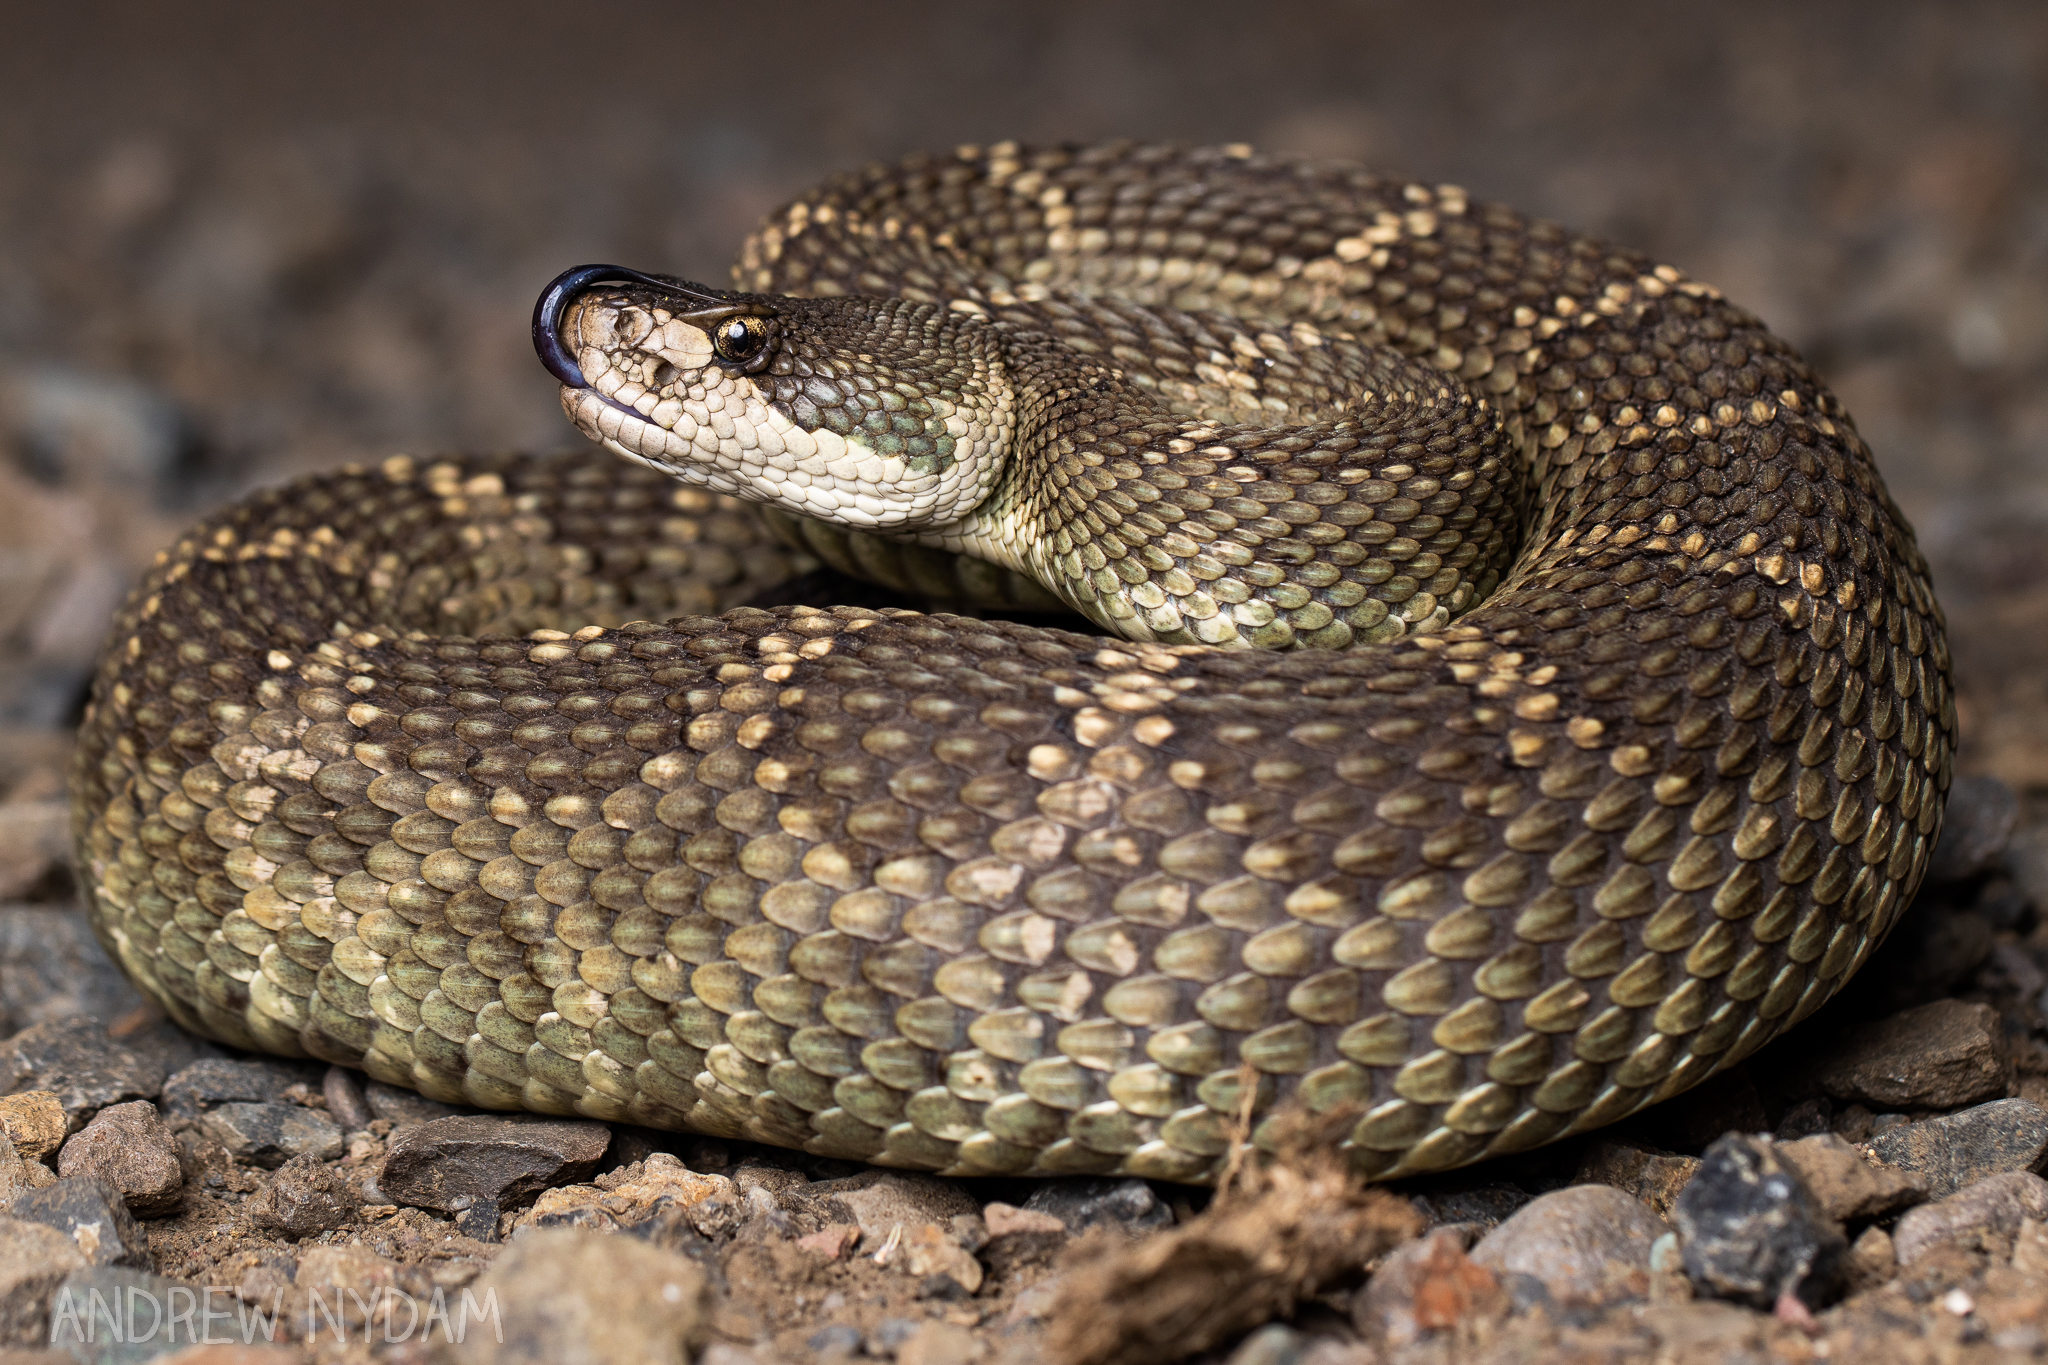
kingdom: Animalia
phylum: Chordata
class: Squamata
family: Viperidae
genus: Crotalus
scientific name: Crotalus oreganus
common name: Abyssus
